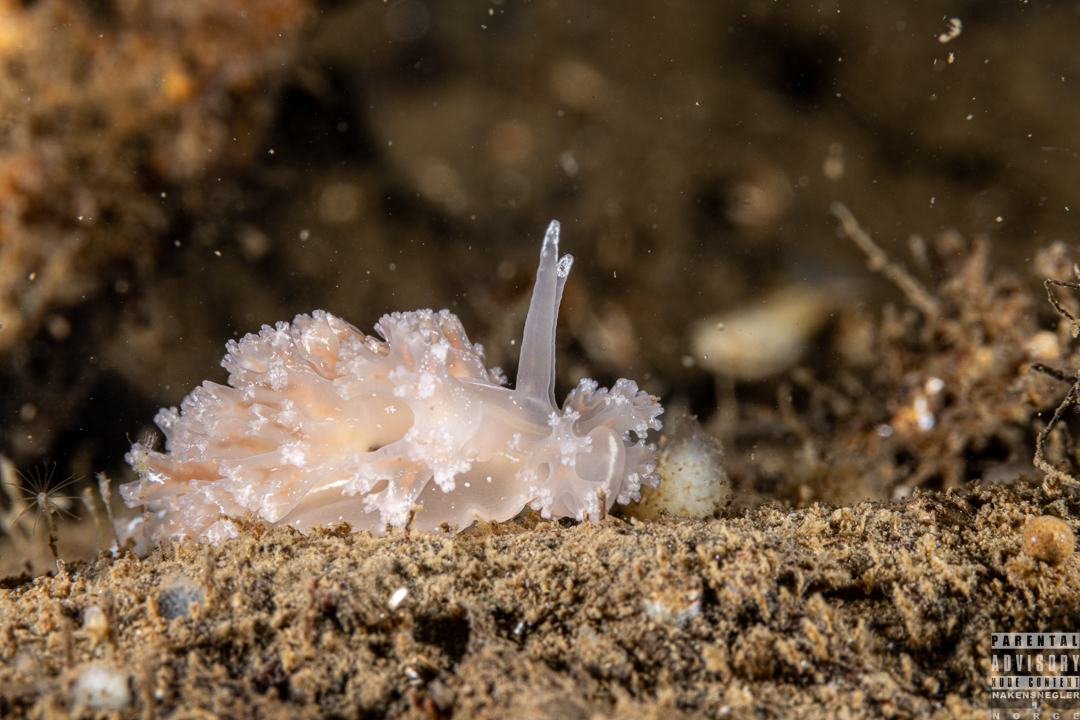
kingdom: Animalia
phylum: Mollusca
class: Gastropoda
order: Nudibranchia
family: Heroidae
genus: Hero
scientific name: Hero formosa
